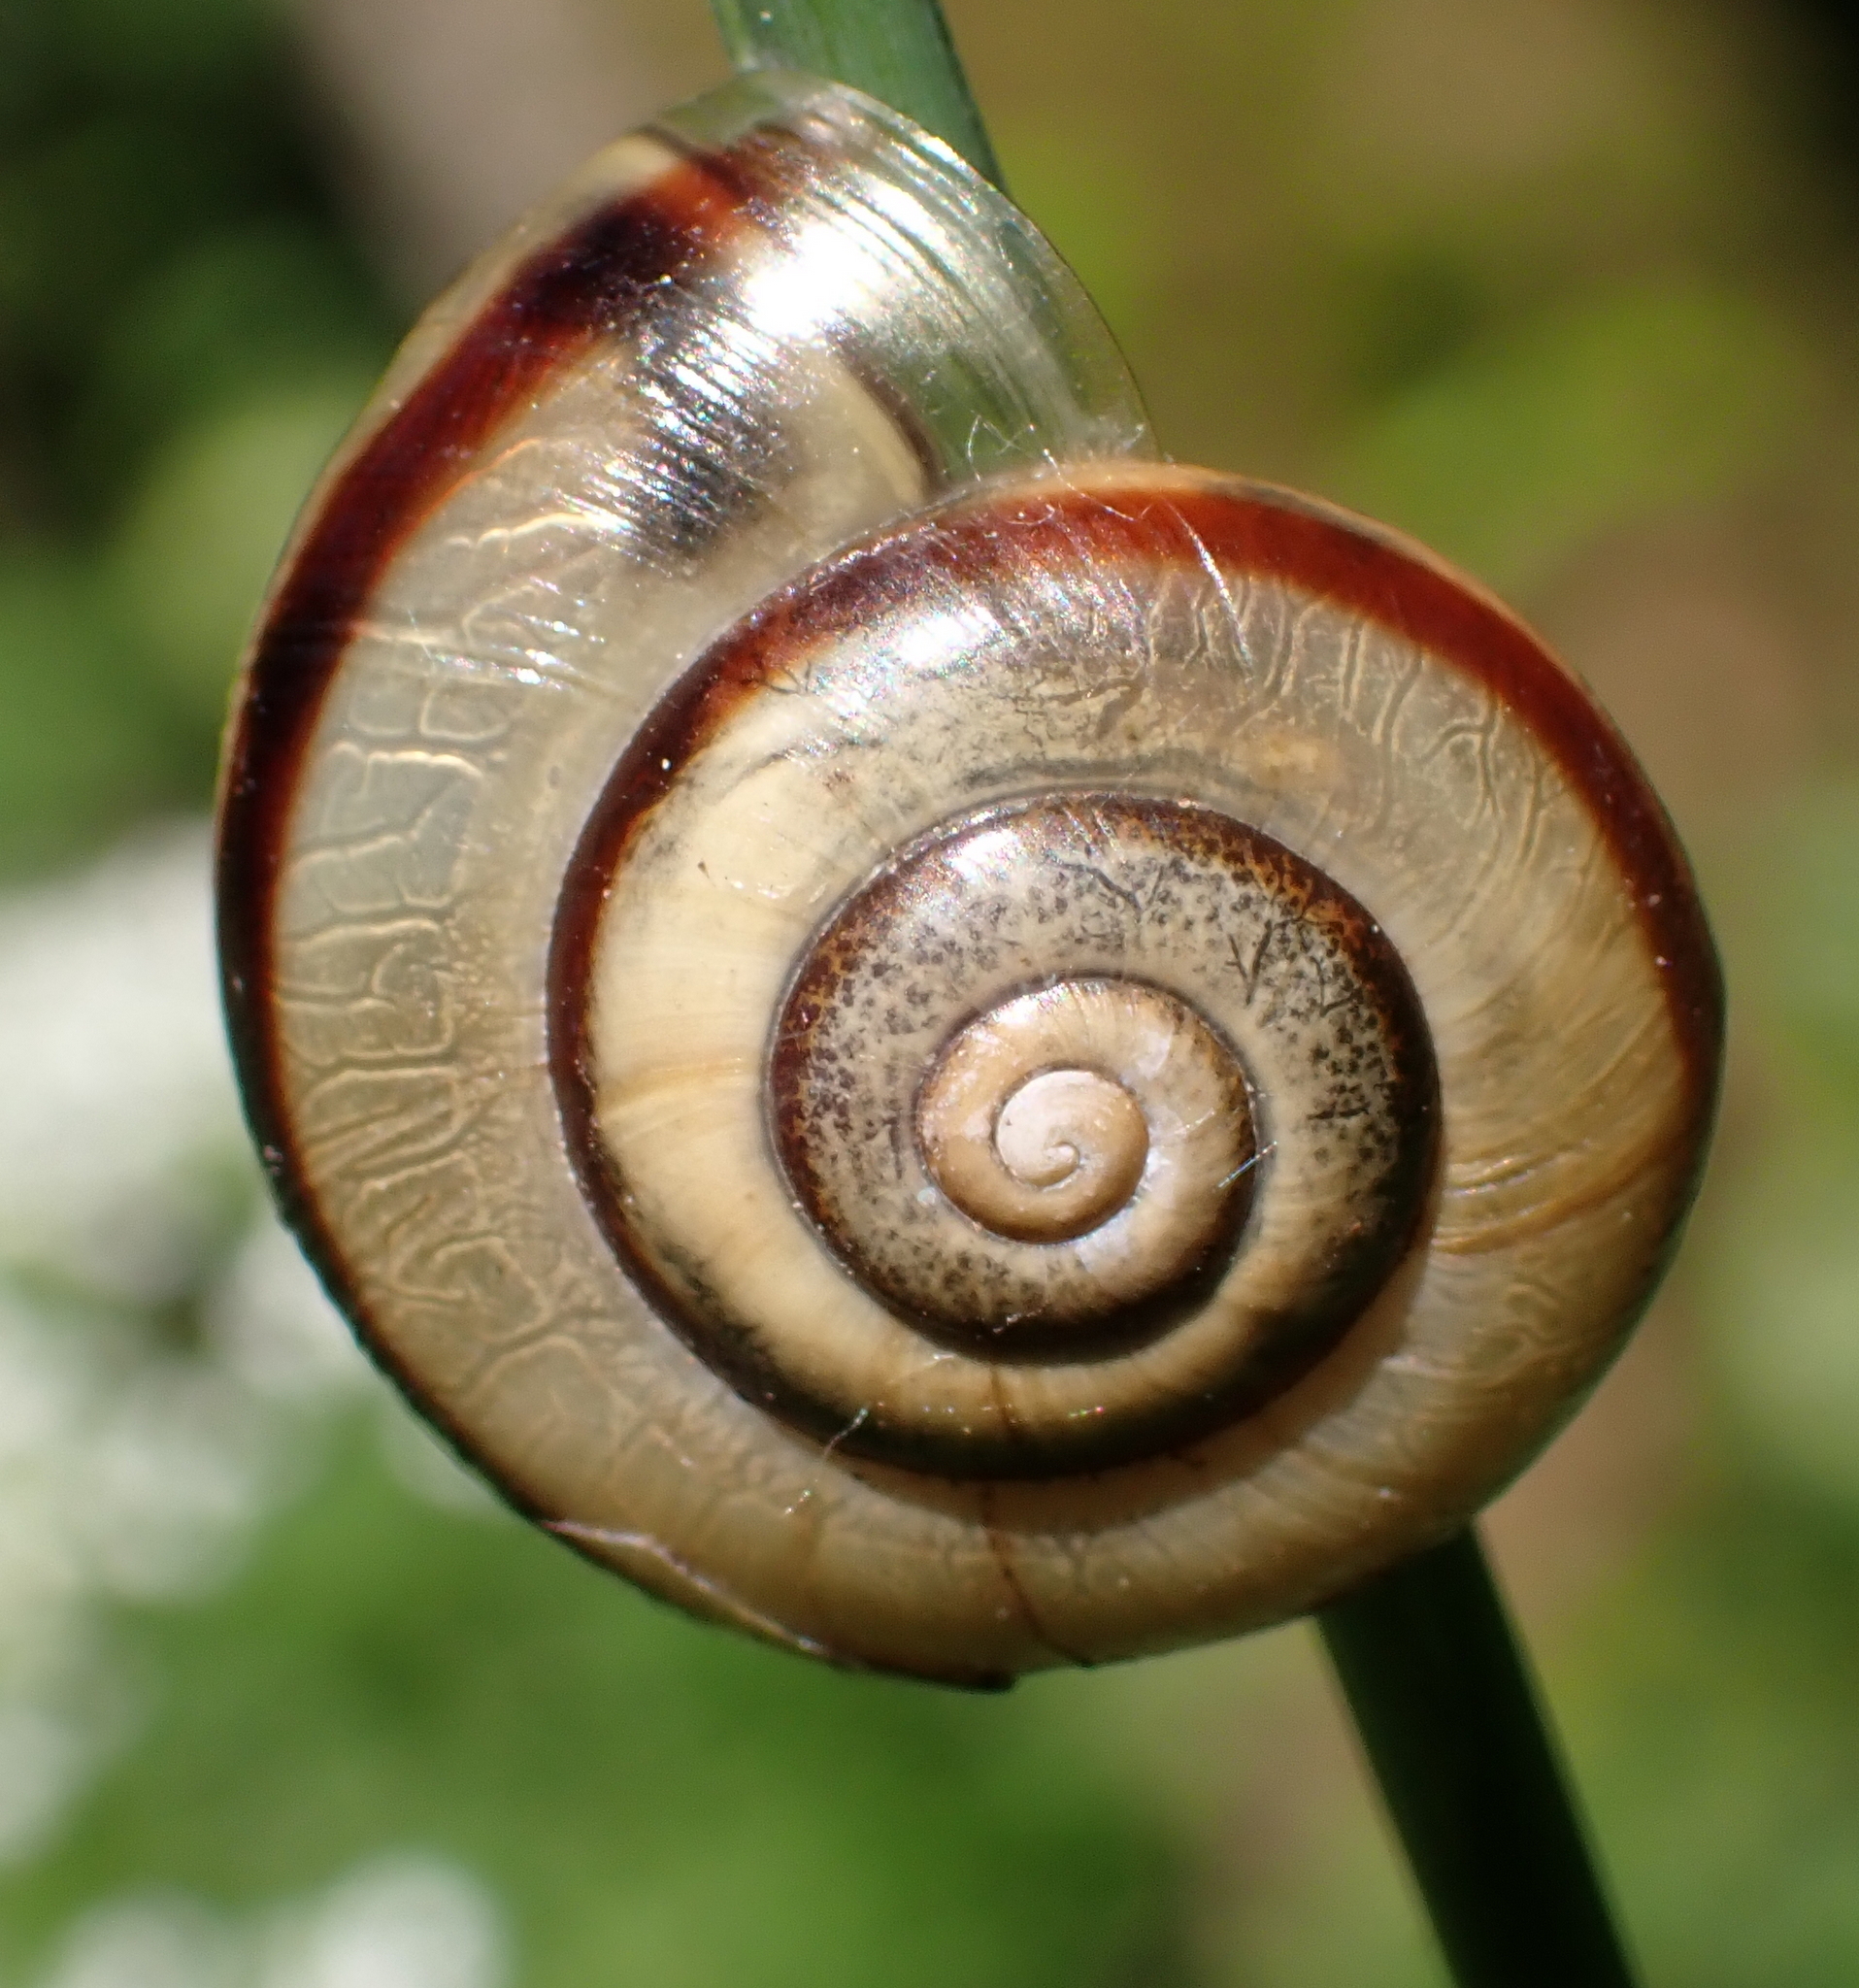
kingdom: Animalia
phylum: Mollusca
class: Gastropoda
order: Stylommatophora
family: Helicidae
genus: Faustina
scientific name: Faustina faustina
